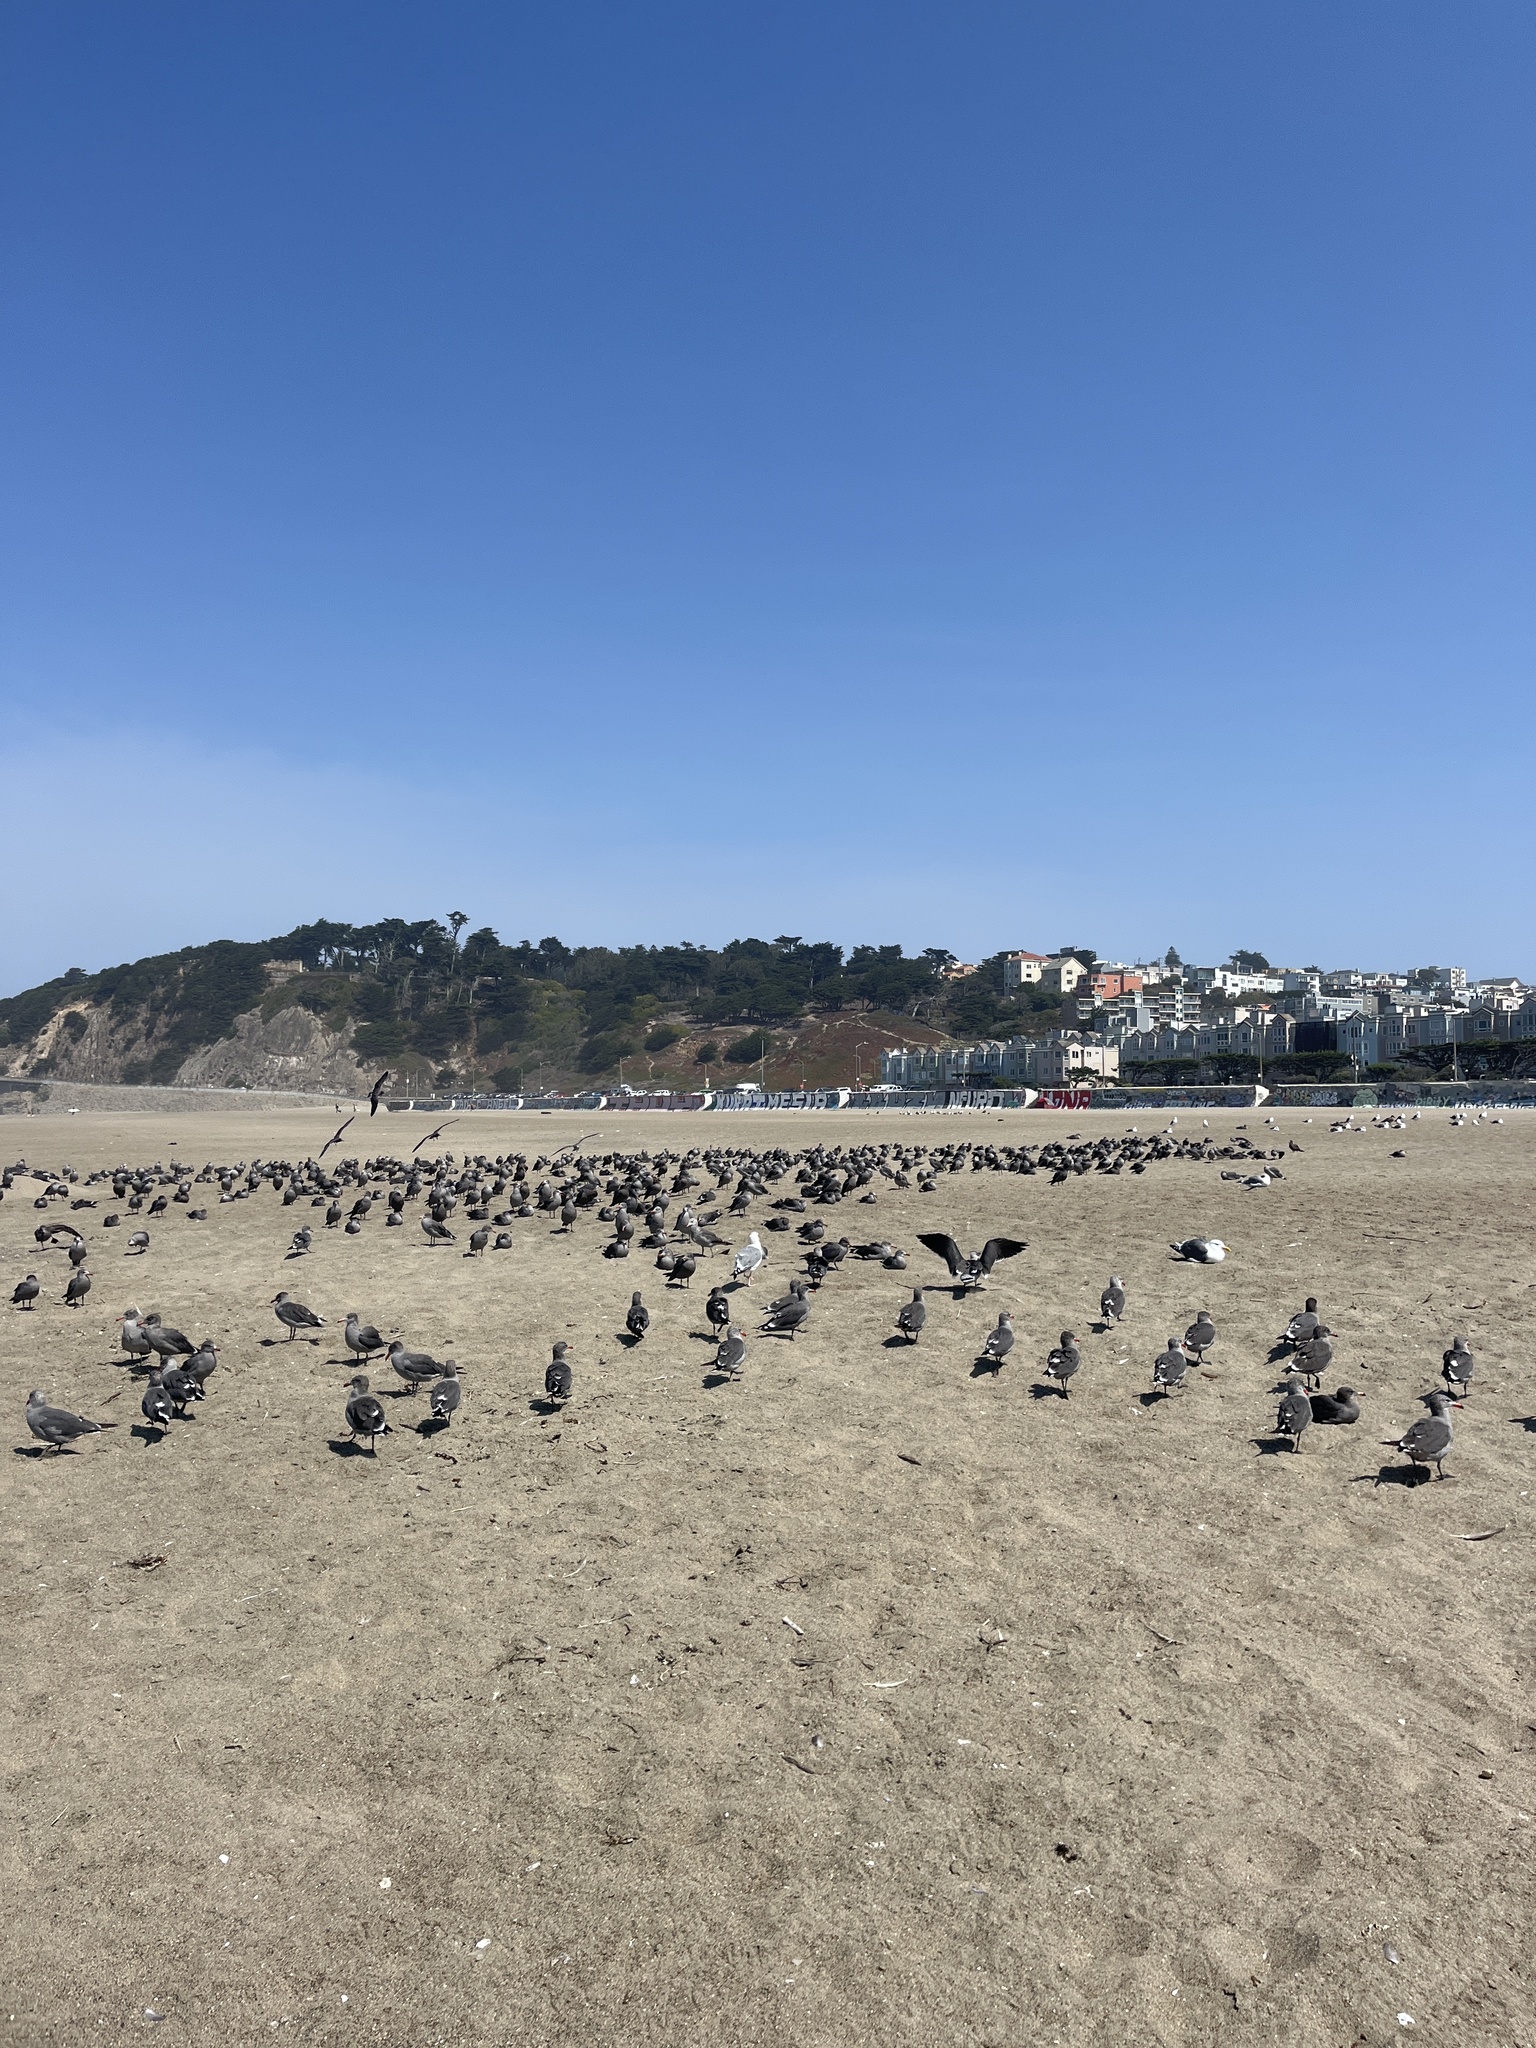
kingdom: Animalia
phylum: Chordata
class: Aves
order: Charadriiformes
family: Laridae
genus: Larus
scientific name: Larus heermanni
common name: Heermann's gull
